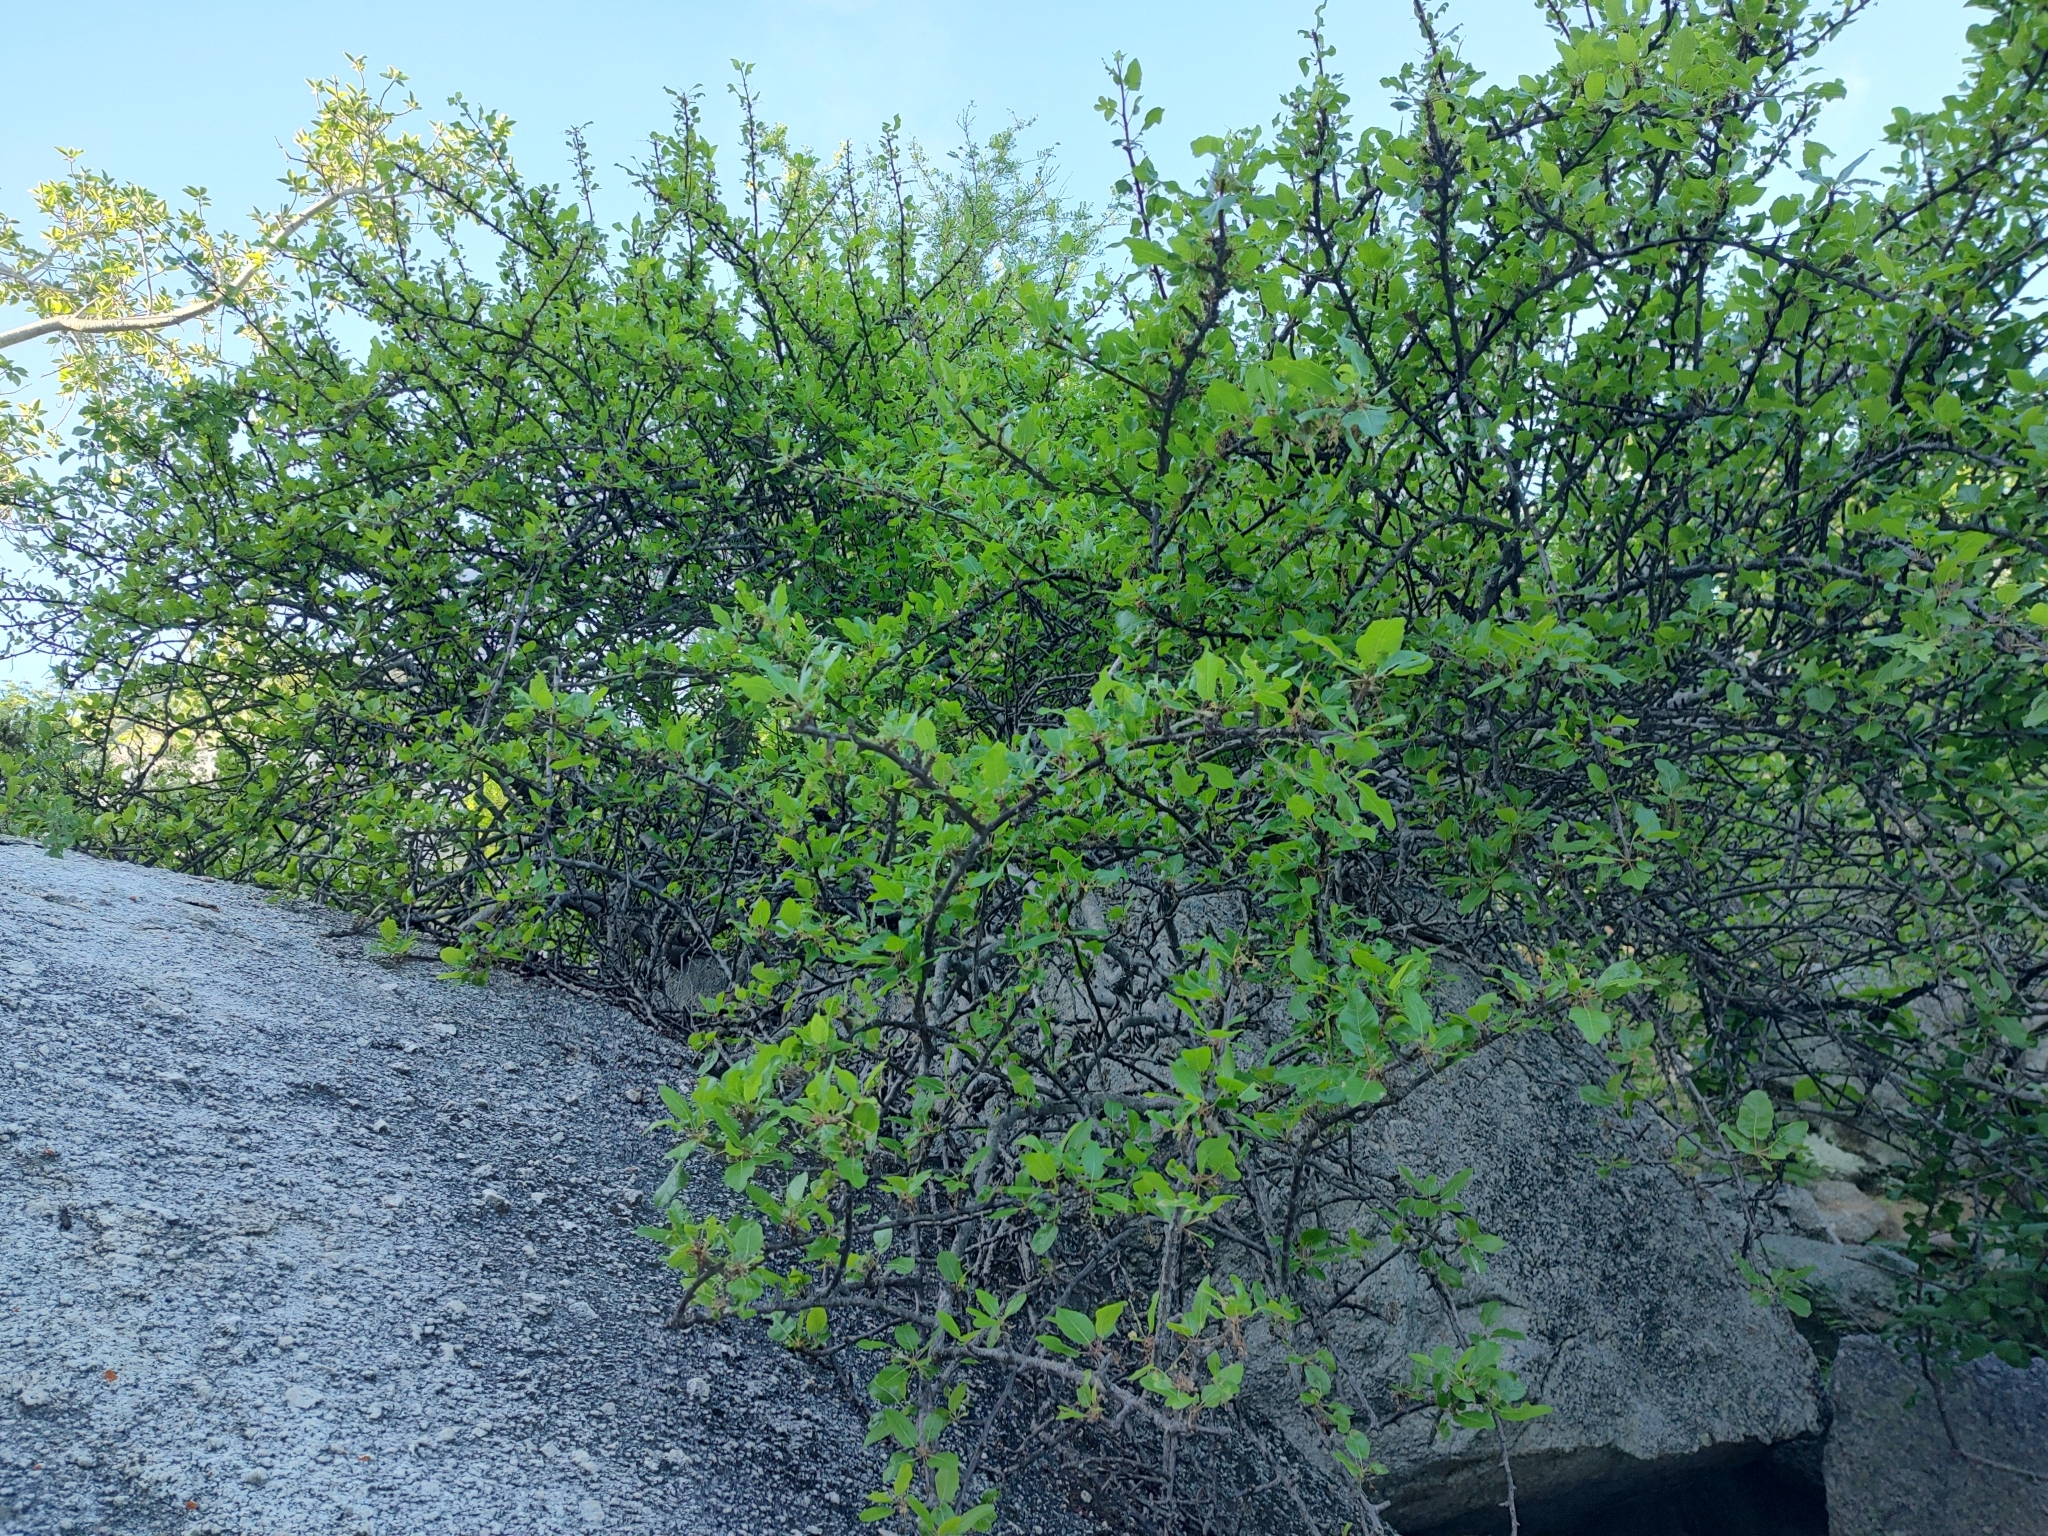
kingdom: Plantae
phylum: Tracheophyta
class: Magnoliopsida
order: Sapindales
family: Burseraceae
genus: Bursera
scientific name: Bursera rupicola
